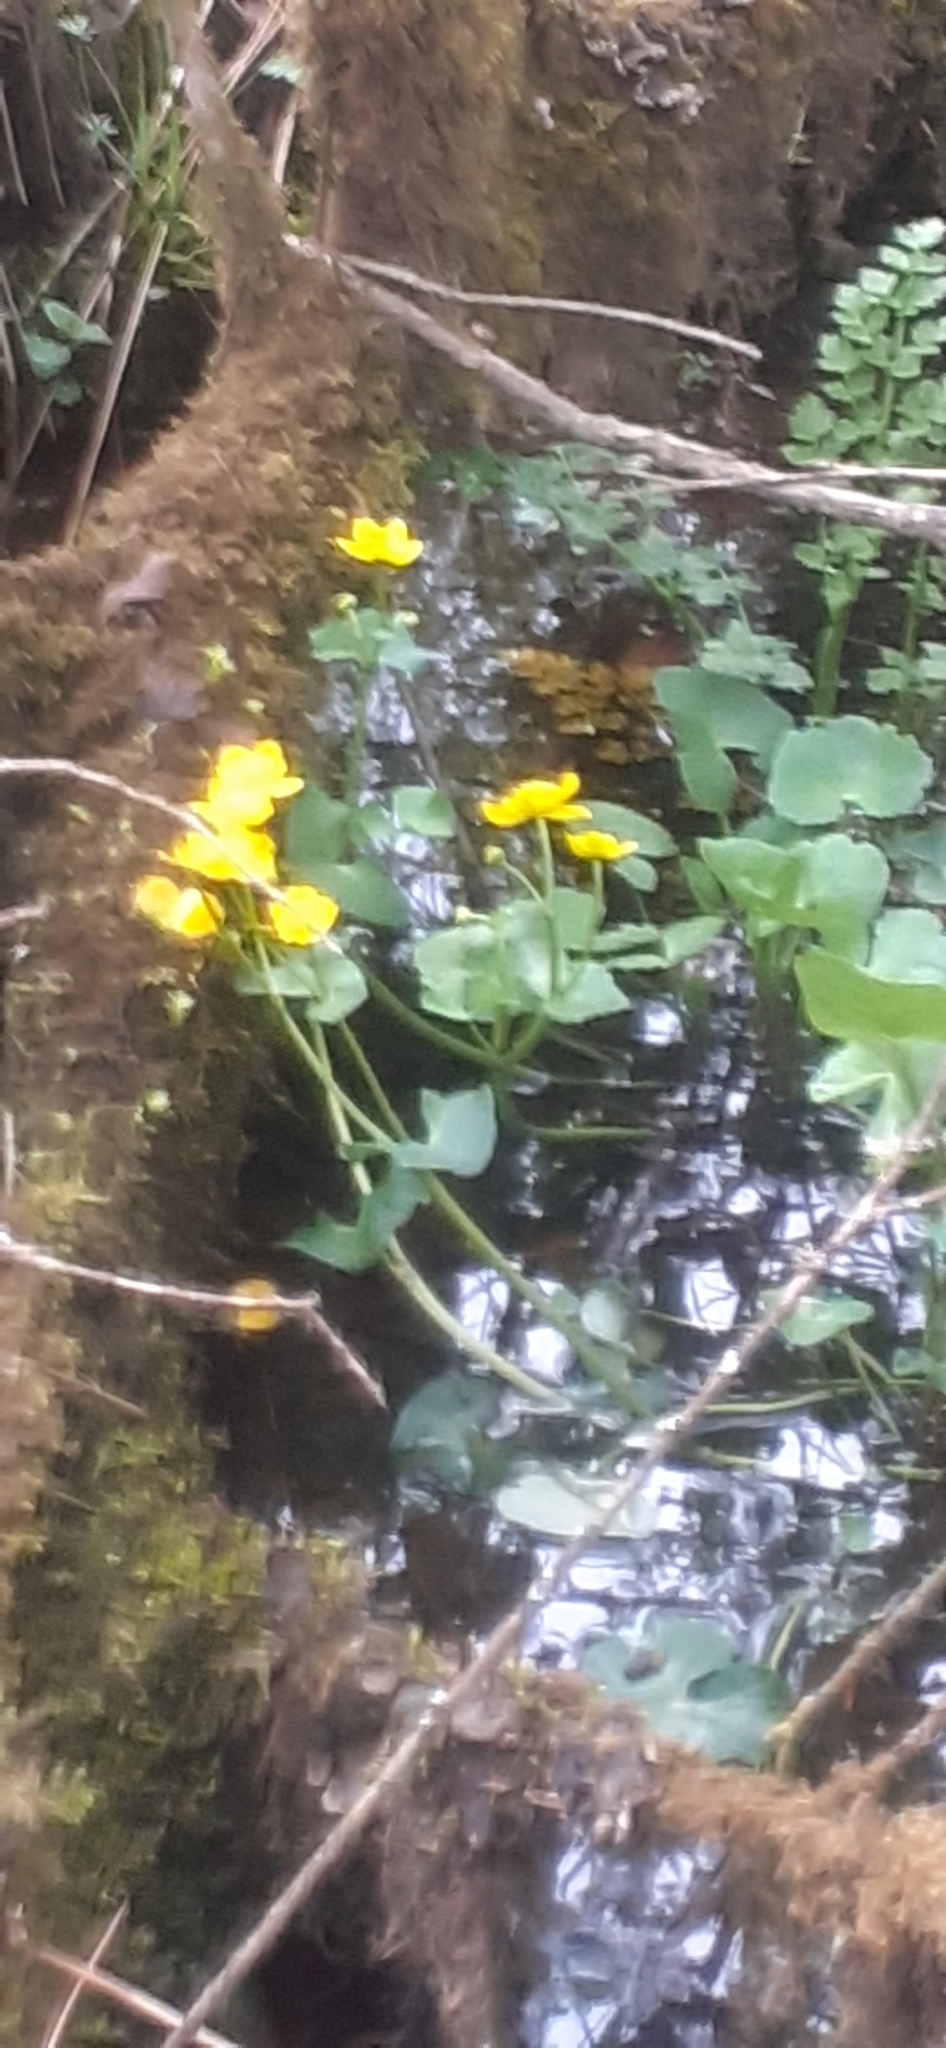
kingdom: Plantae
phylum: Tracheophyta
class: Magnoliopsida
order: Ranunculales
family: Ranunculaceae
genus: Caltha
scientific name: Caltha palustris
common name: Marsh marigold
